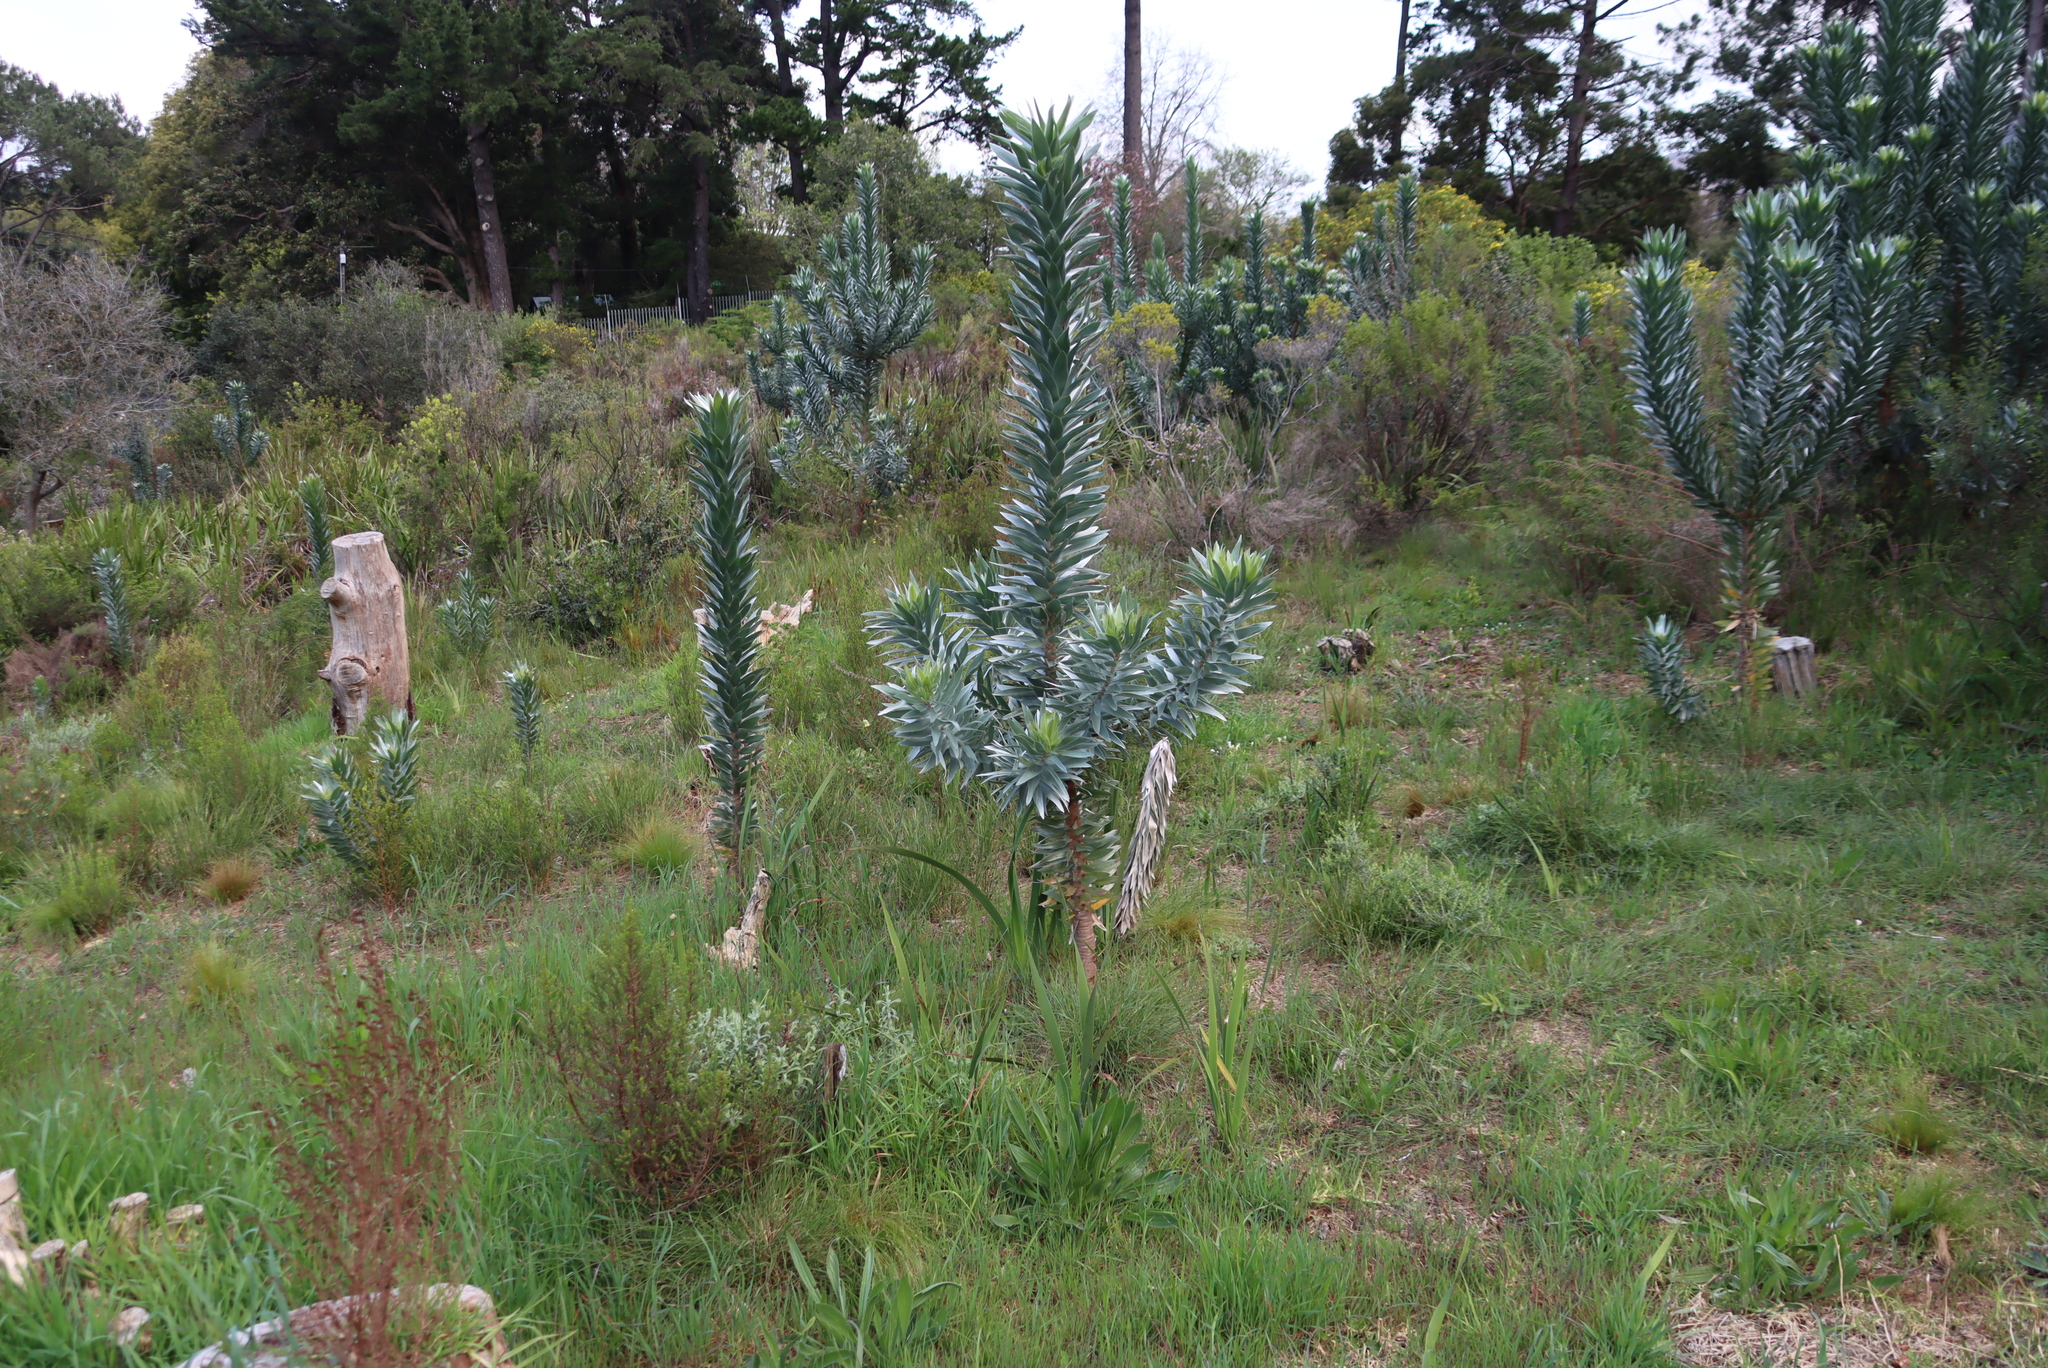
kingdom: Plantae
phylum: Tracheophyta
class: Magnoliopsida
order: Proteales
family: Proteaceae
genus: Leucadendron
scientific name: Leucadendron argenteum
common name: Cape silver tree
